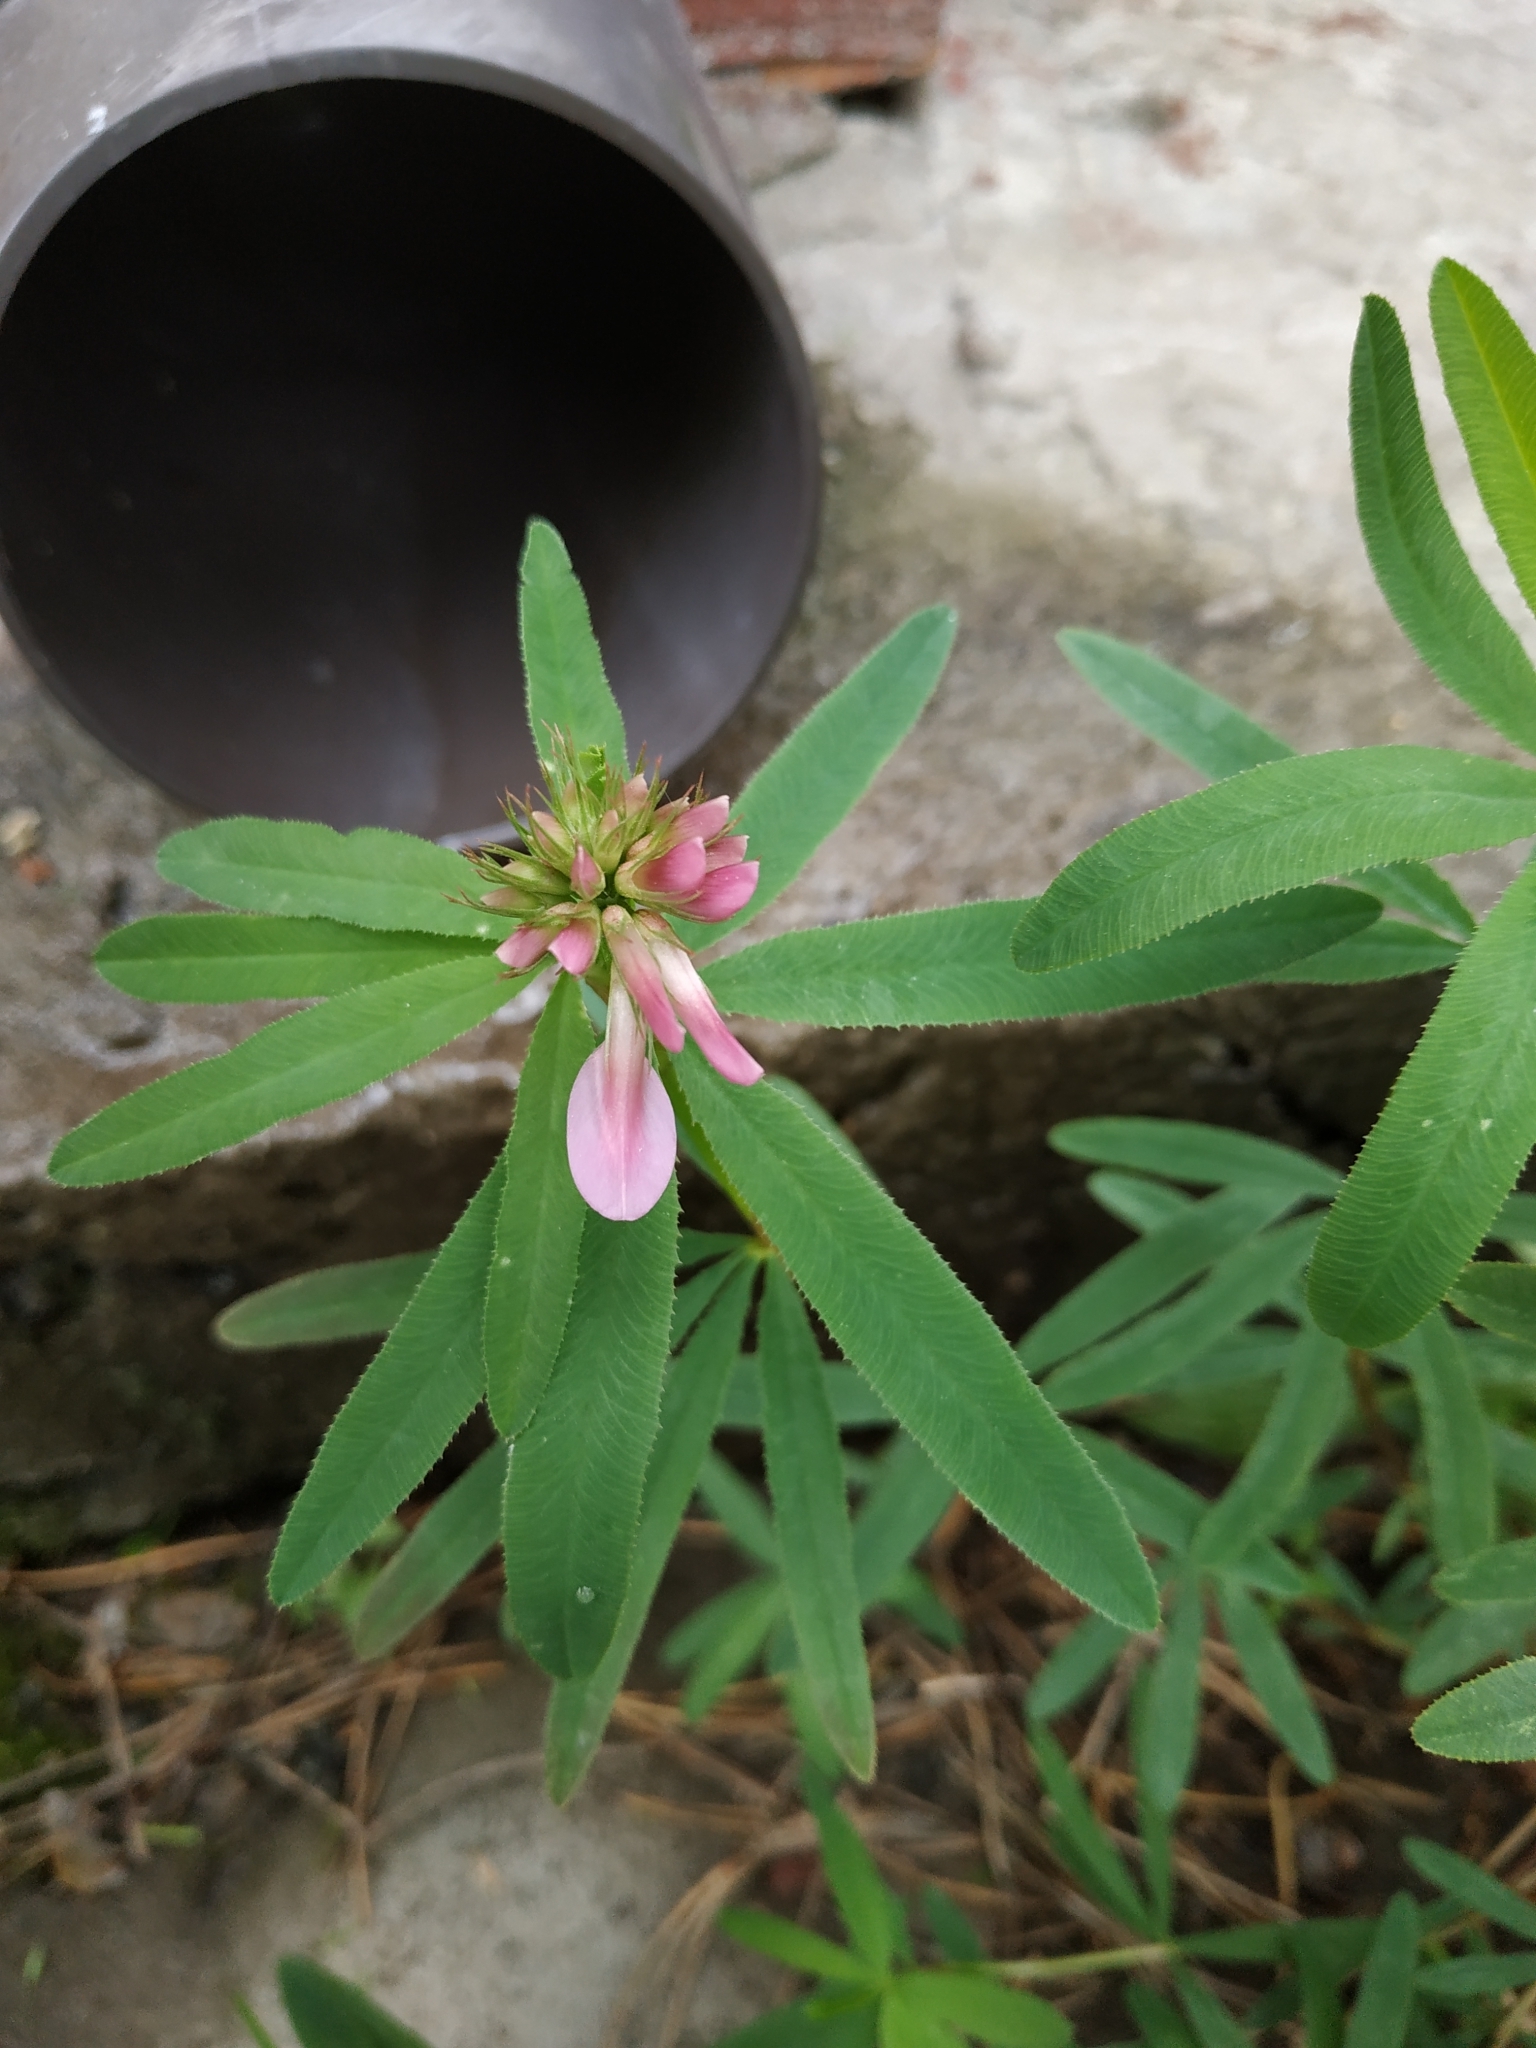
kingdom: Plantae
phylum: Tracheophyta
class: Magnoliopsida
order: Fabales
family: Fabaceae
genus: Trifolium
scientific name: Trifolium lupinaster
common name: Lupine clover
